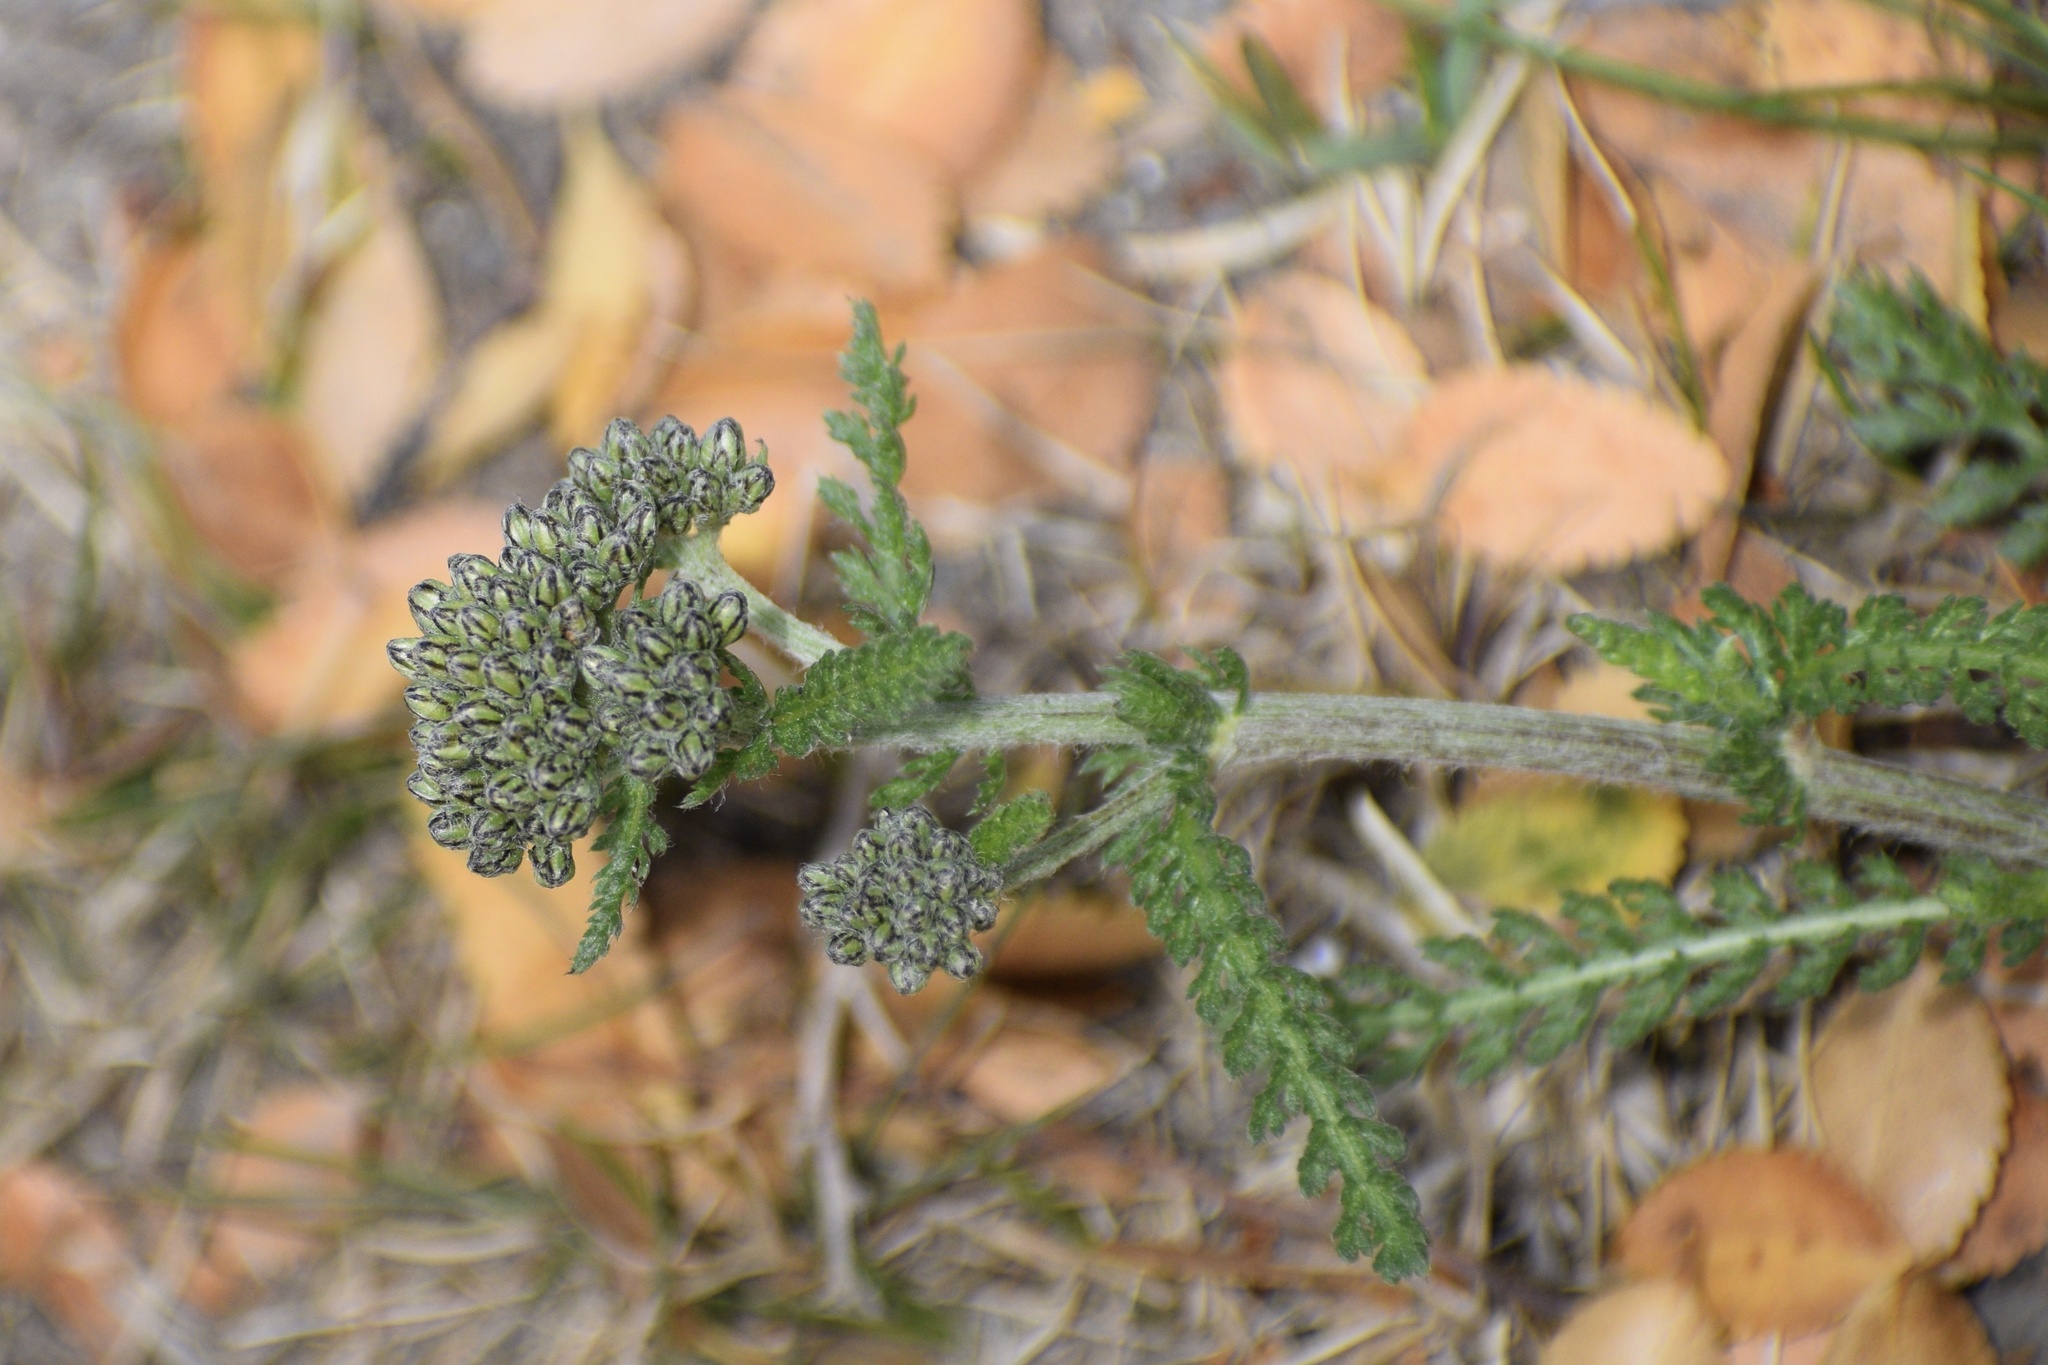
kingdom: Plantae
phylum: Tracheophyta
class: Magnoliopsida
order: Asterales
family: Asteraceae
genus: Achillea
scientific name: Achillea millefolium
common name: Yarrow
